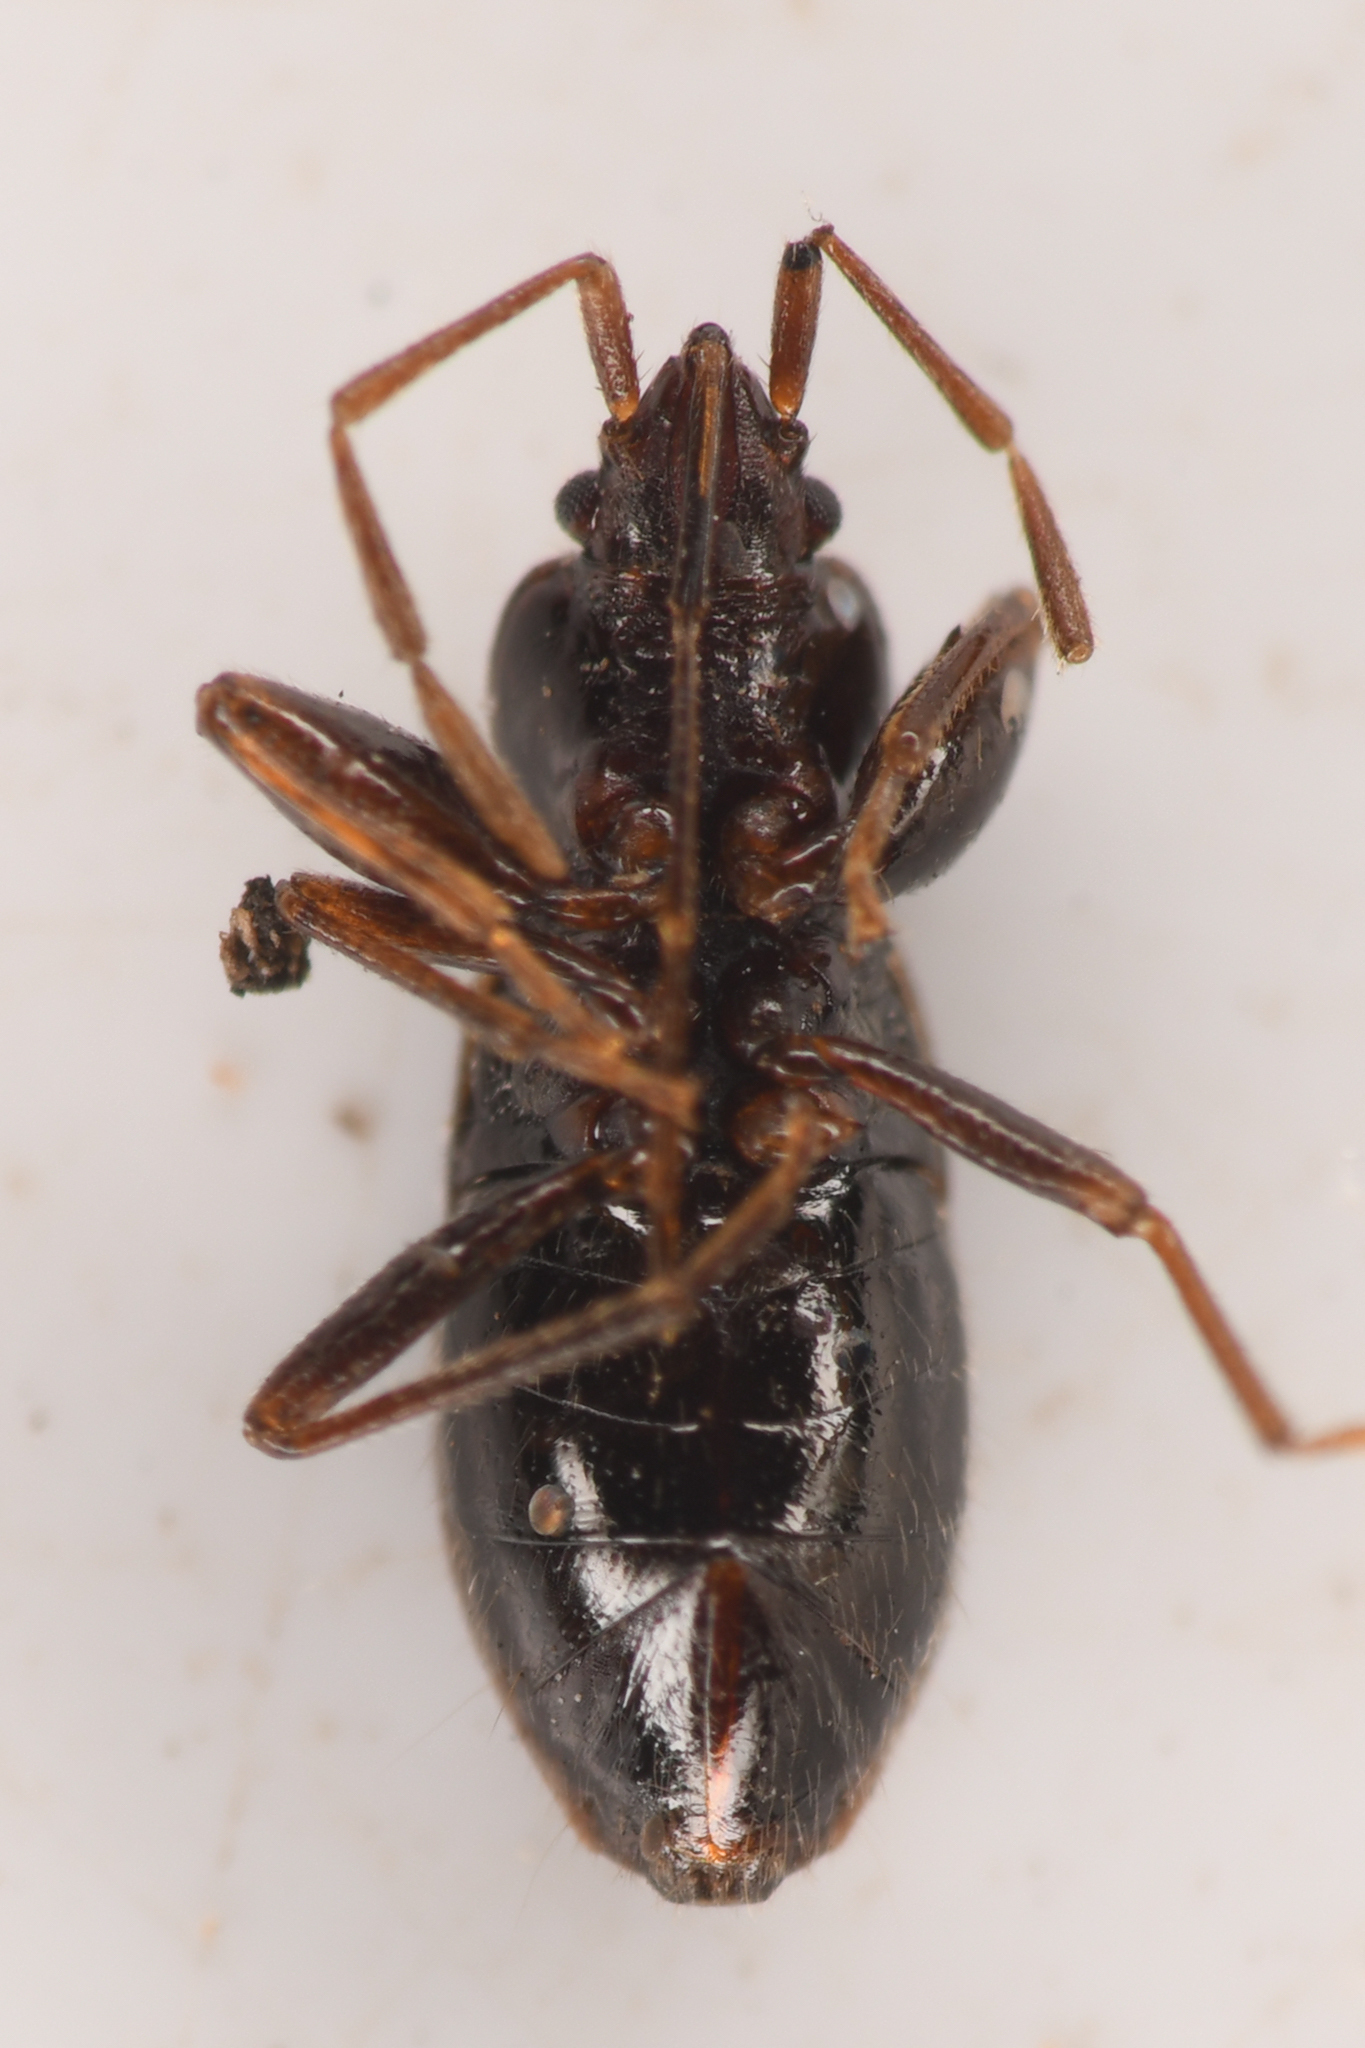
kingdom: Animalia
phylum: Arthropoda
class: Insecta
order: Hemiptera
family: Rhyparochromidae
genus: Thylochromus
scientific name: Thylochromus nitidulus
